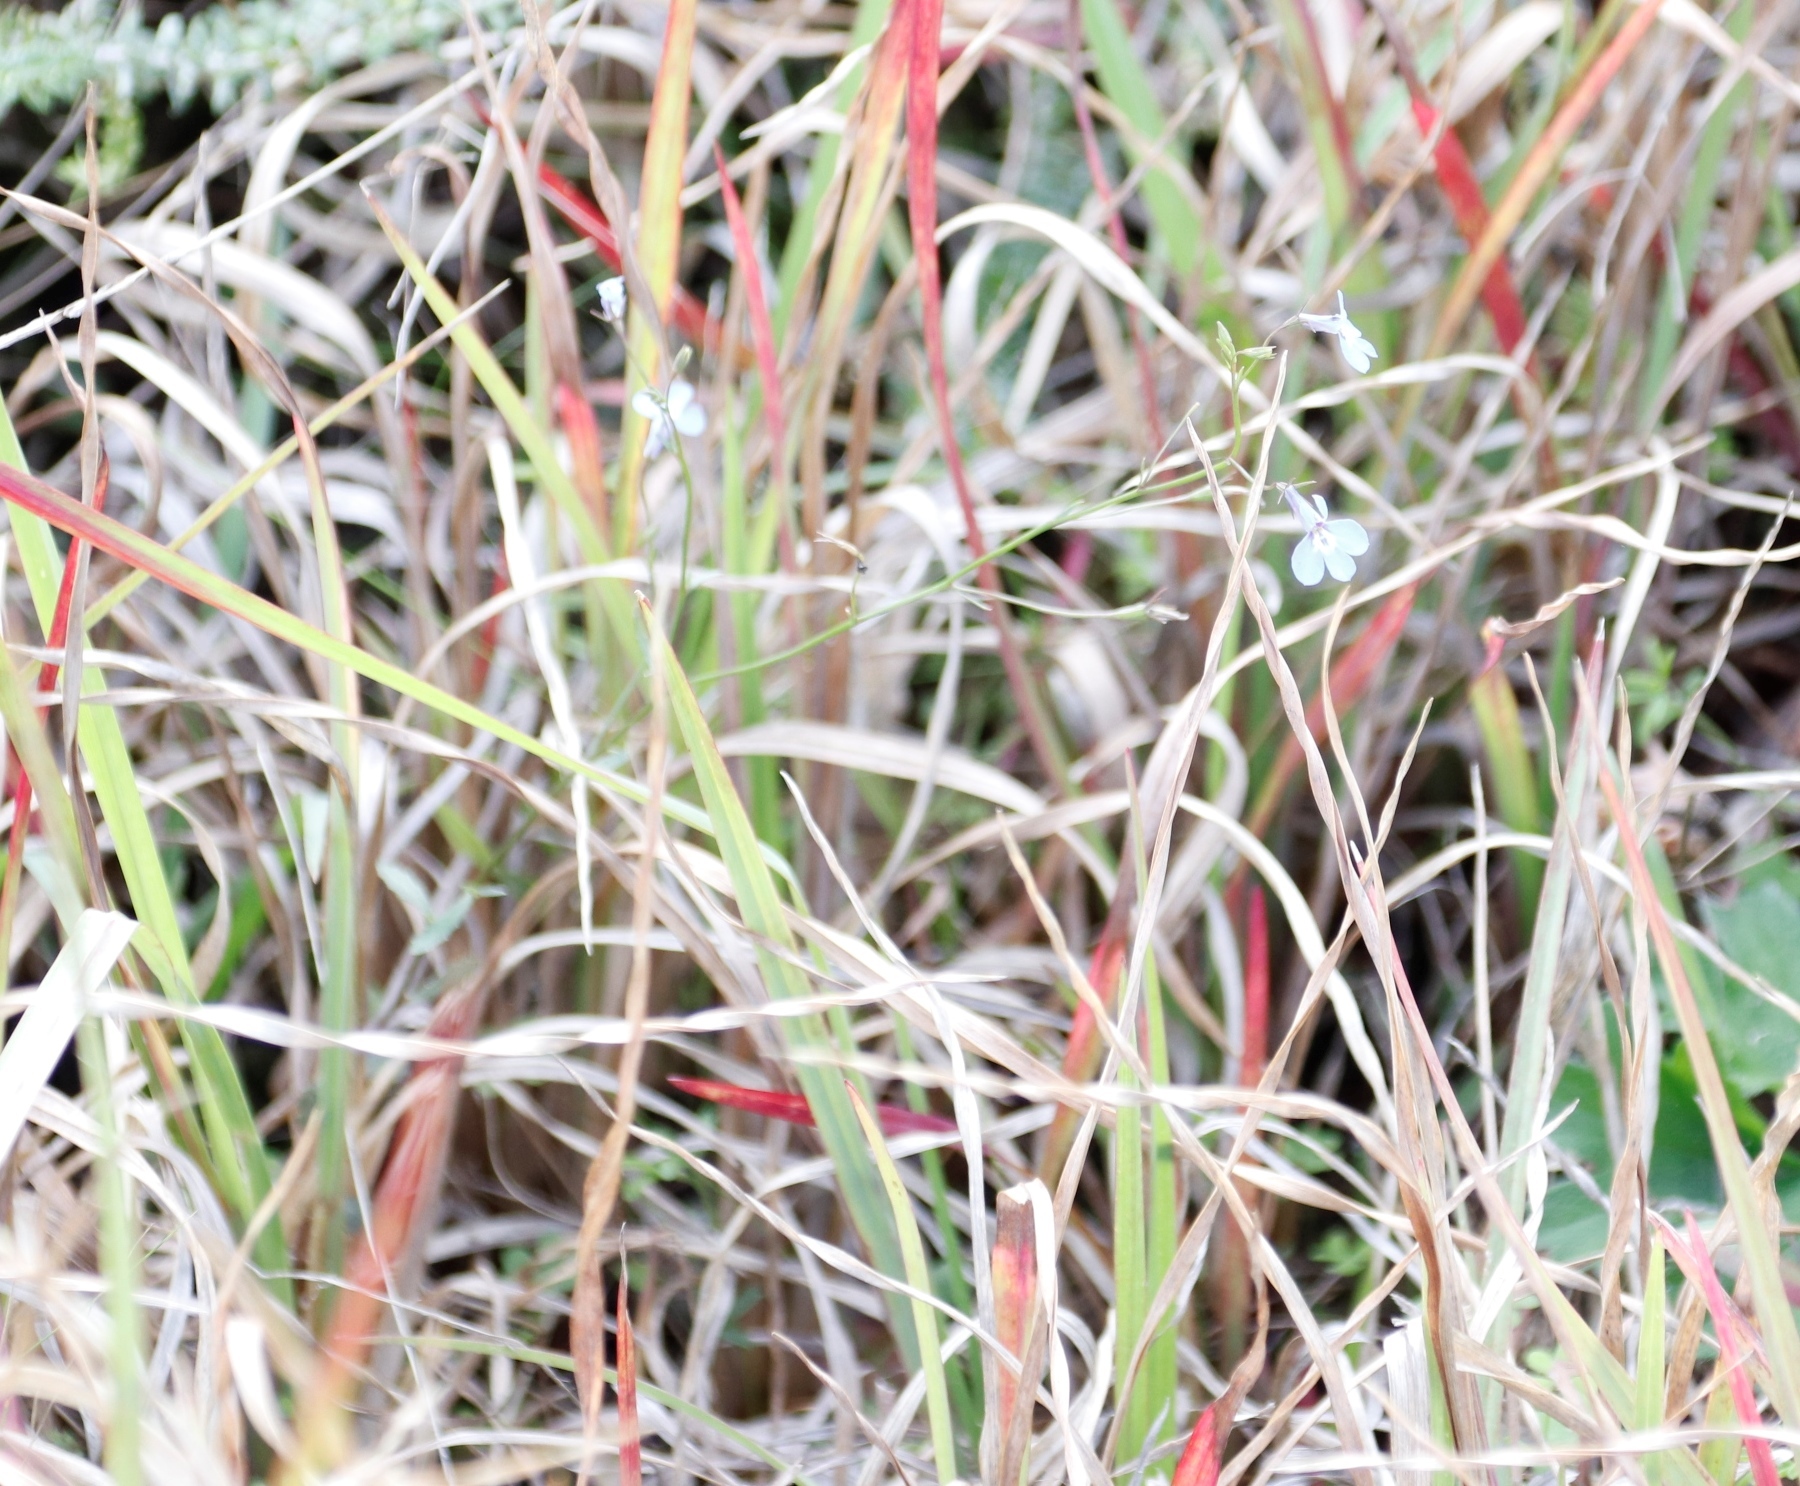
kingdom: Plantae
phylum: Tracheophyta
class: Magnoliopsida
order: Asterales
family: Campanulaceae
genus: Lobelia
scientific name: Lobelia erinus
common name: Edging lobelia
